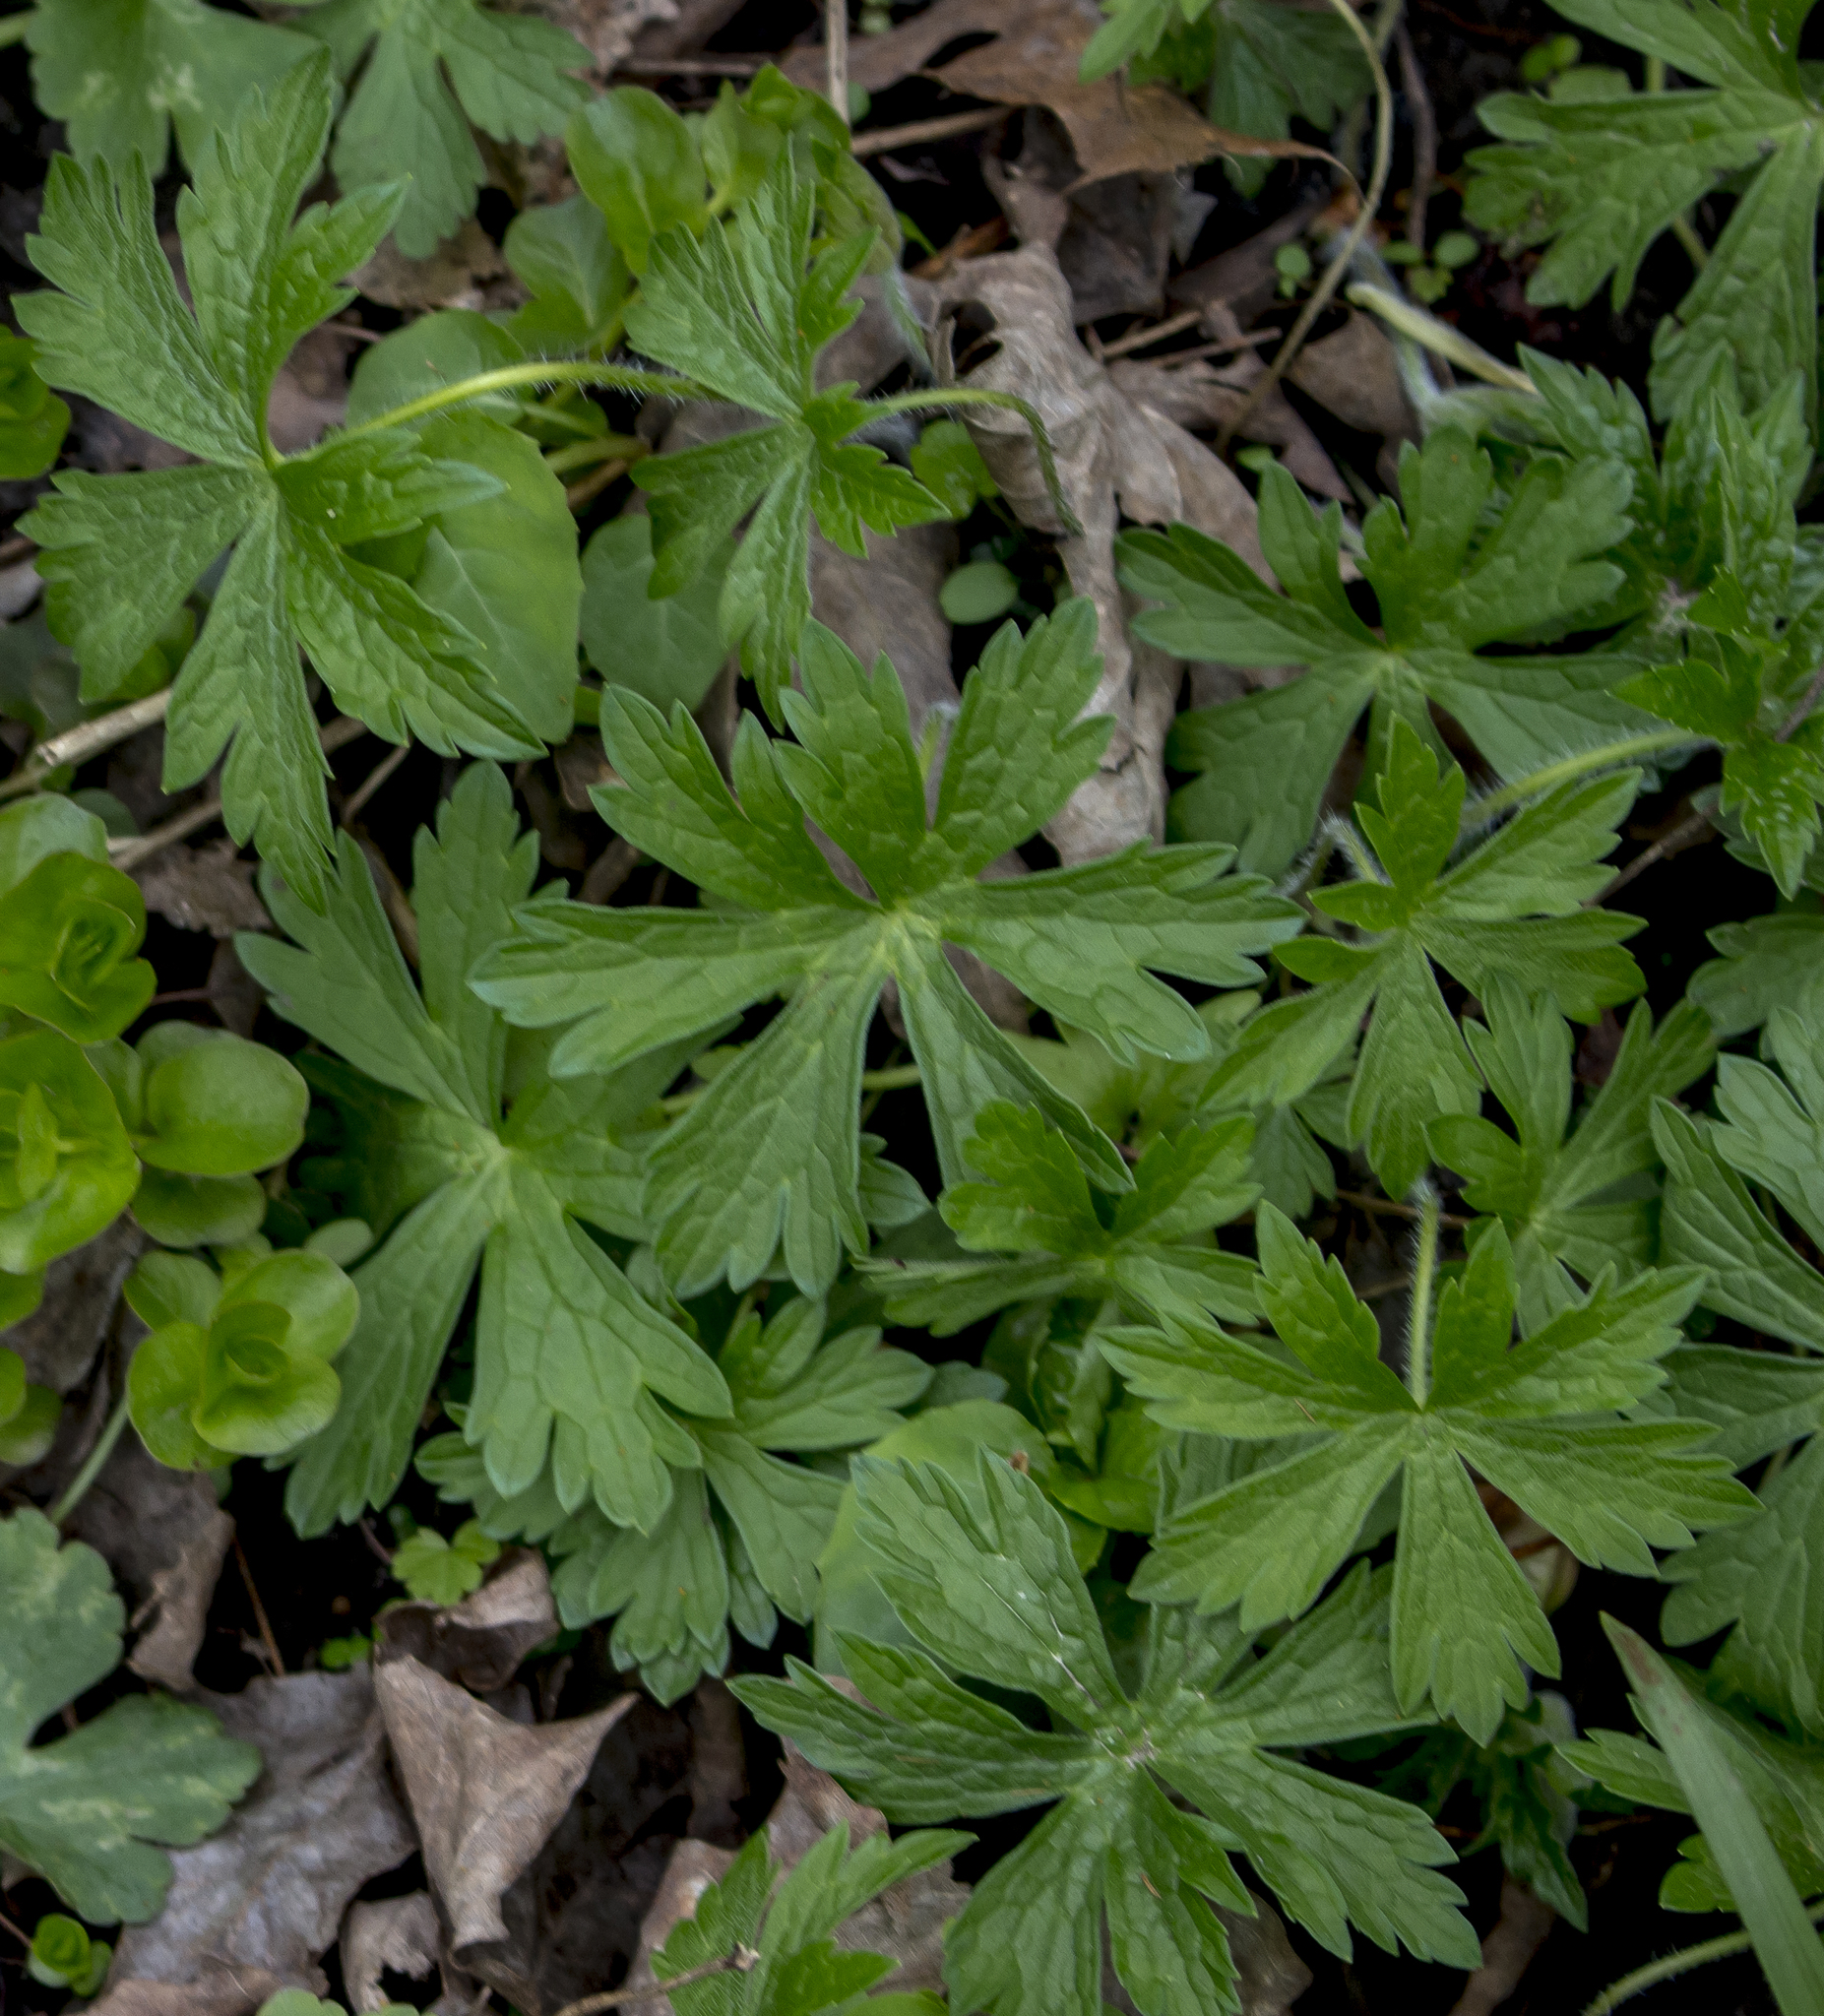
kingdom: Plantae
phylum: Tracheophyta
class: Magnoliopsida
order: Geraniales
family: Geraniaceae
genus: Geranium
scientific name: Geranium maculatum
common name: Spotted geranium
